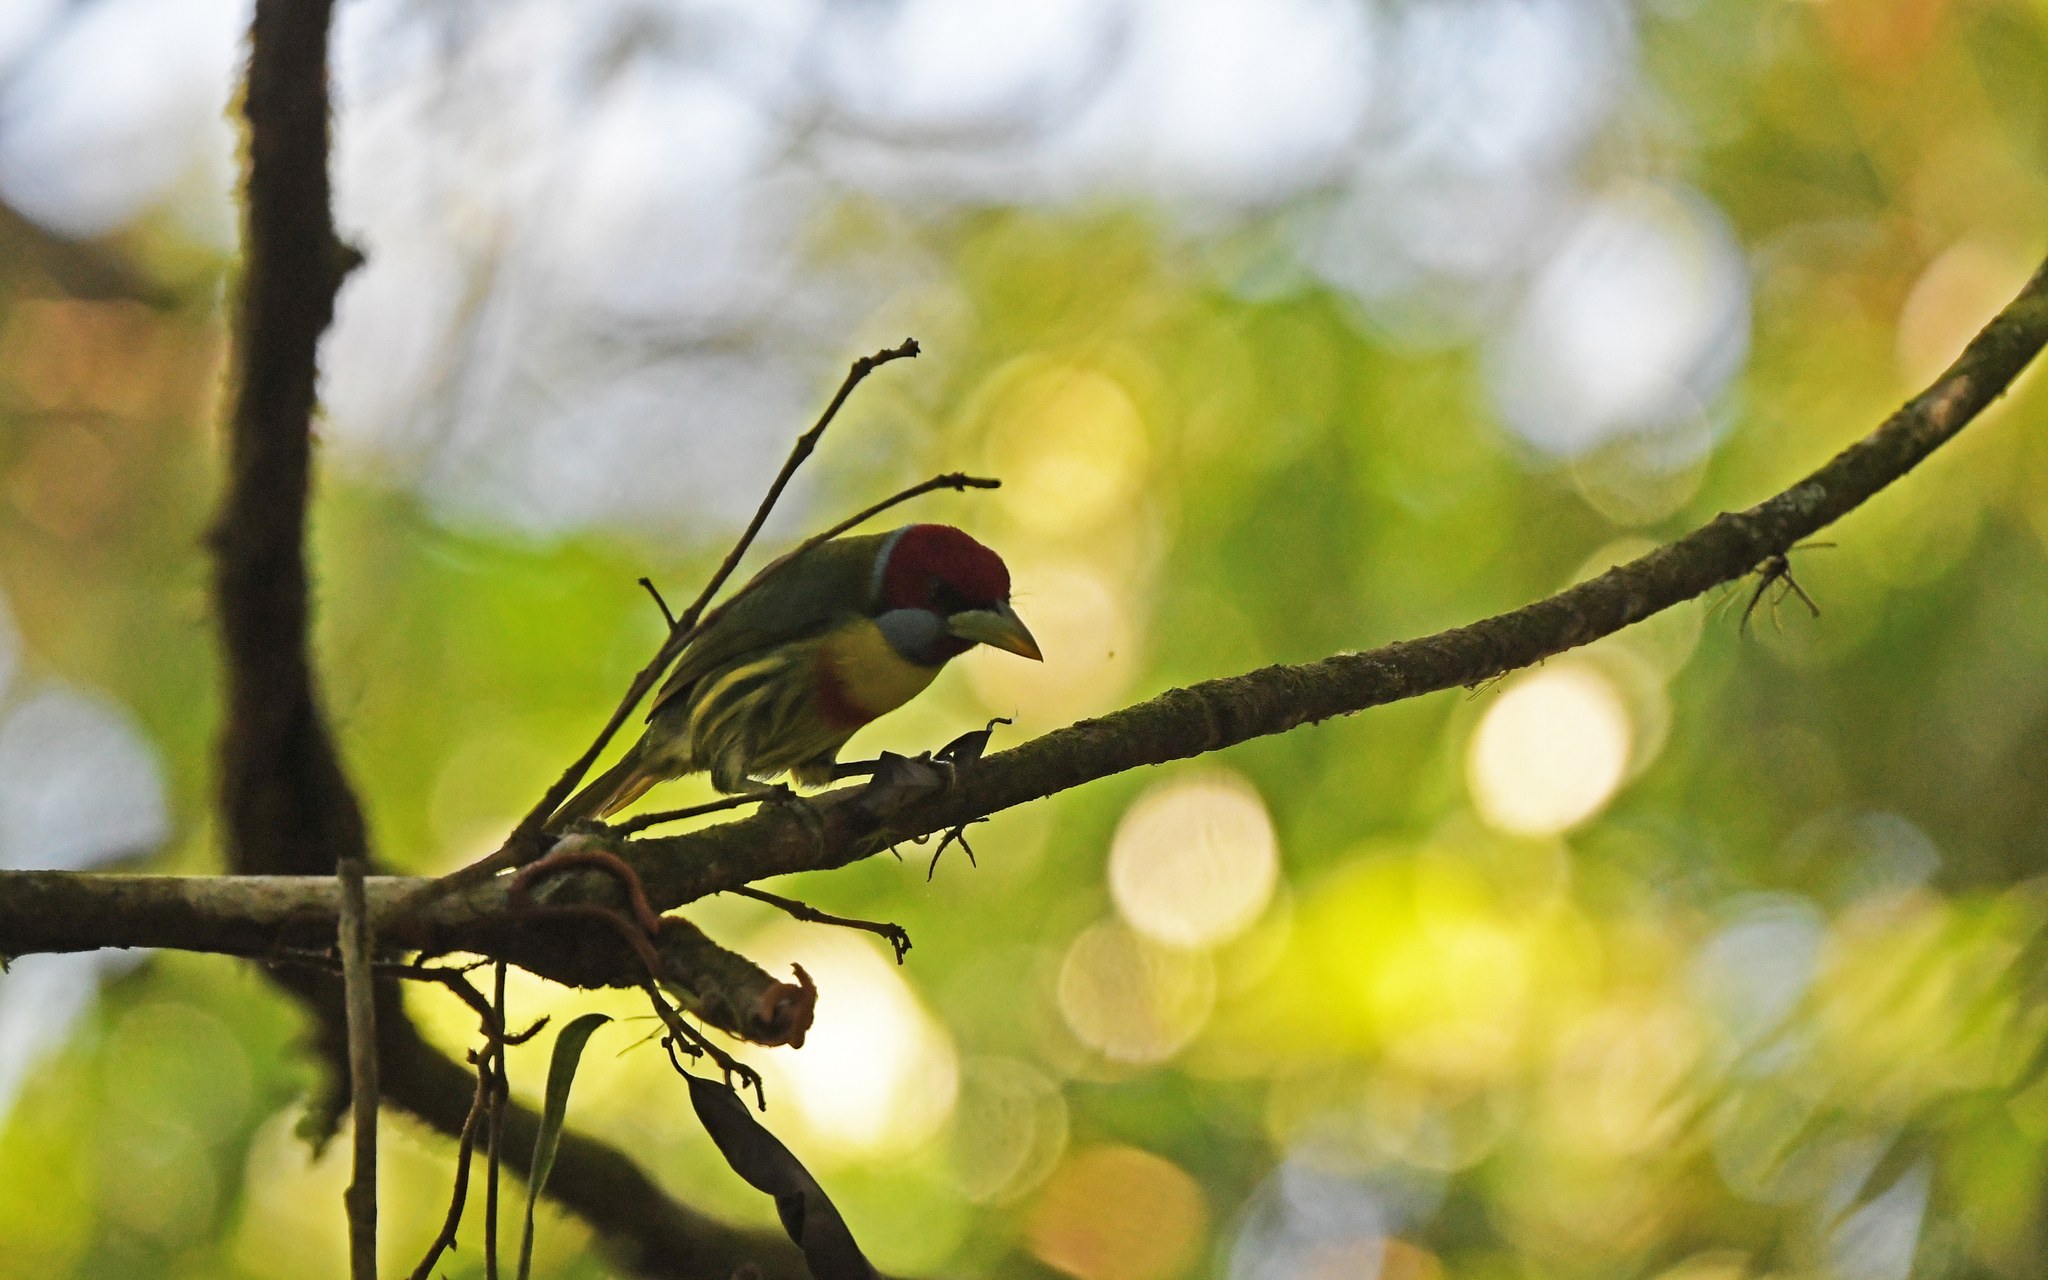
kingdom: Animalia
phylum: Chordata
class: Aves
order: Piciformes
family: Capitonidae
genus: Eubucco
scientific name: Eubucco versicolor
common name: Versicolored barbet
